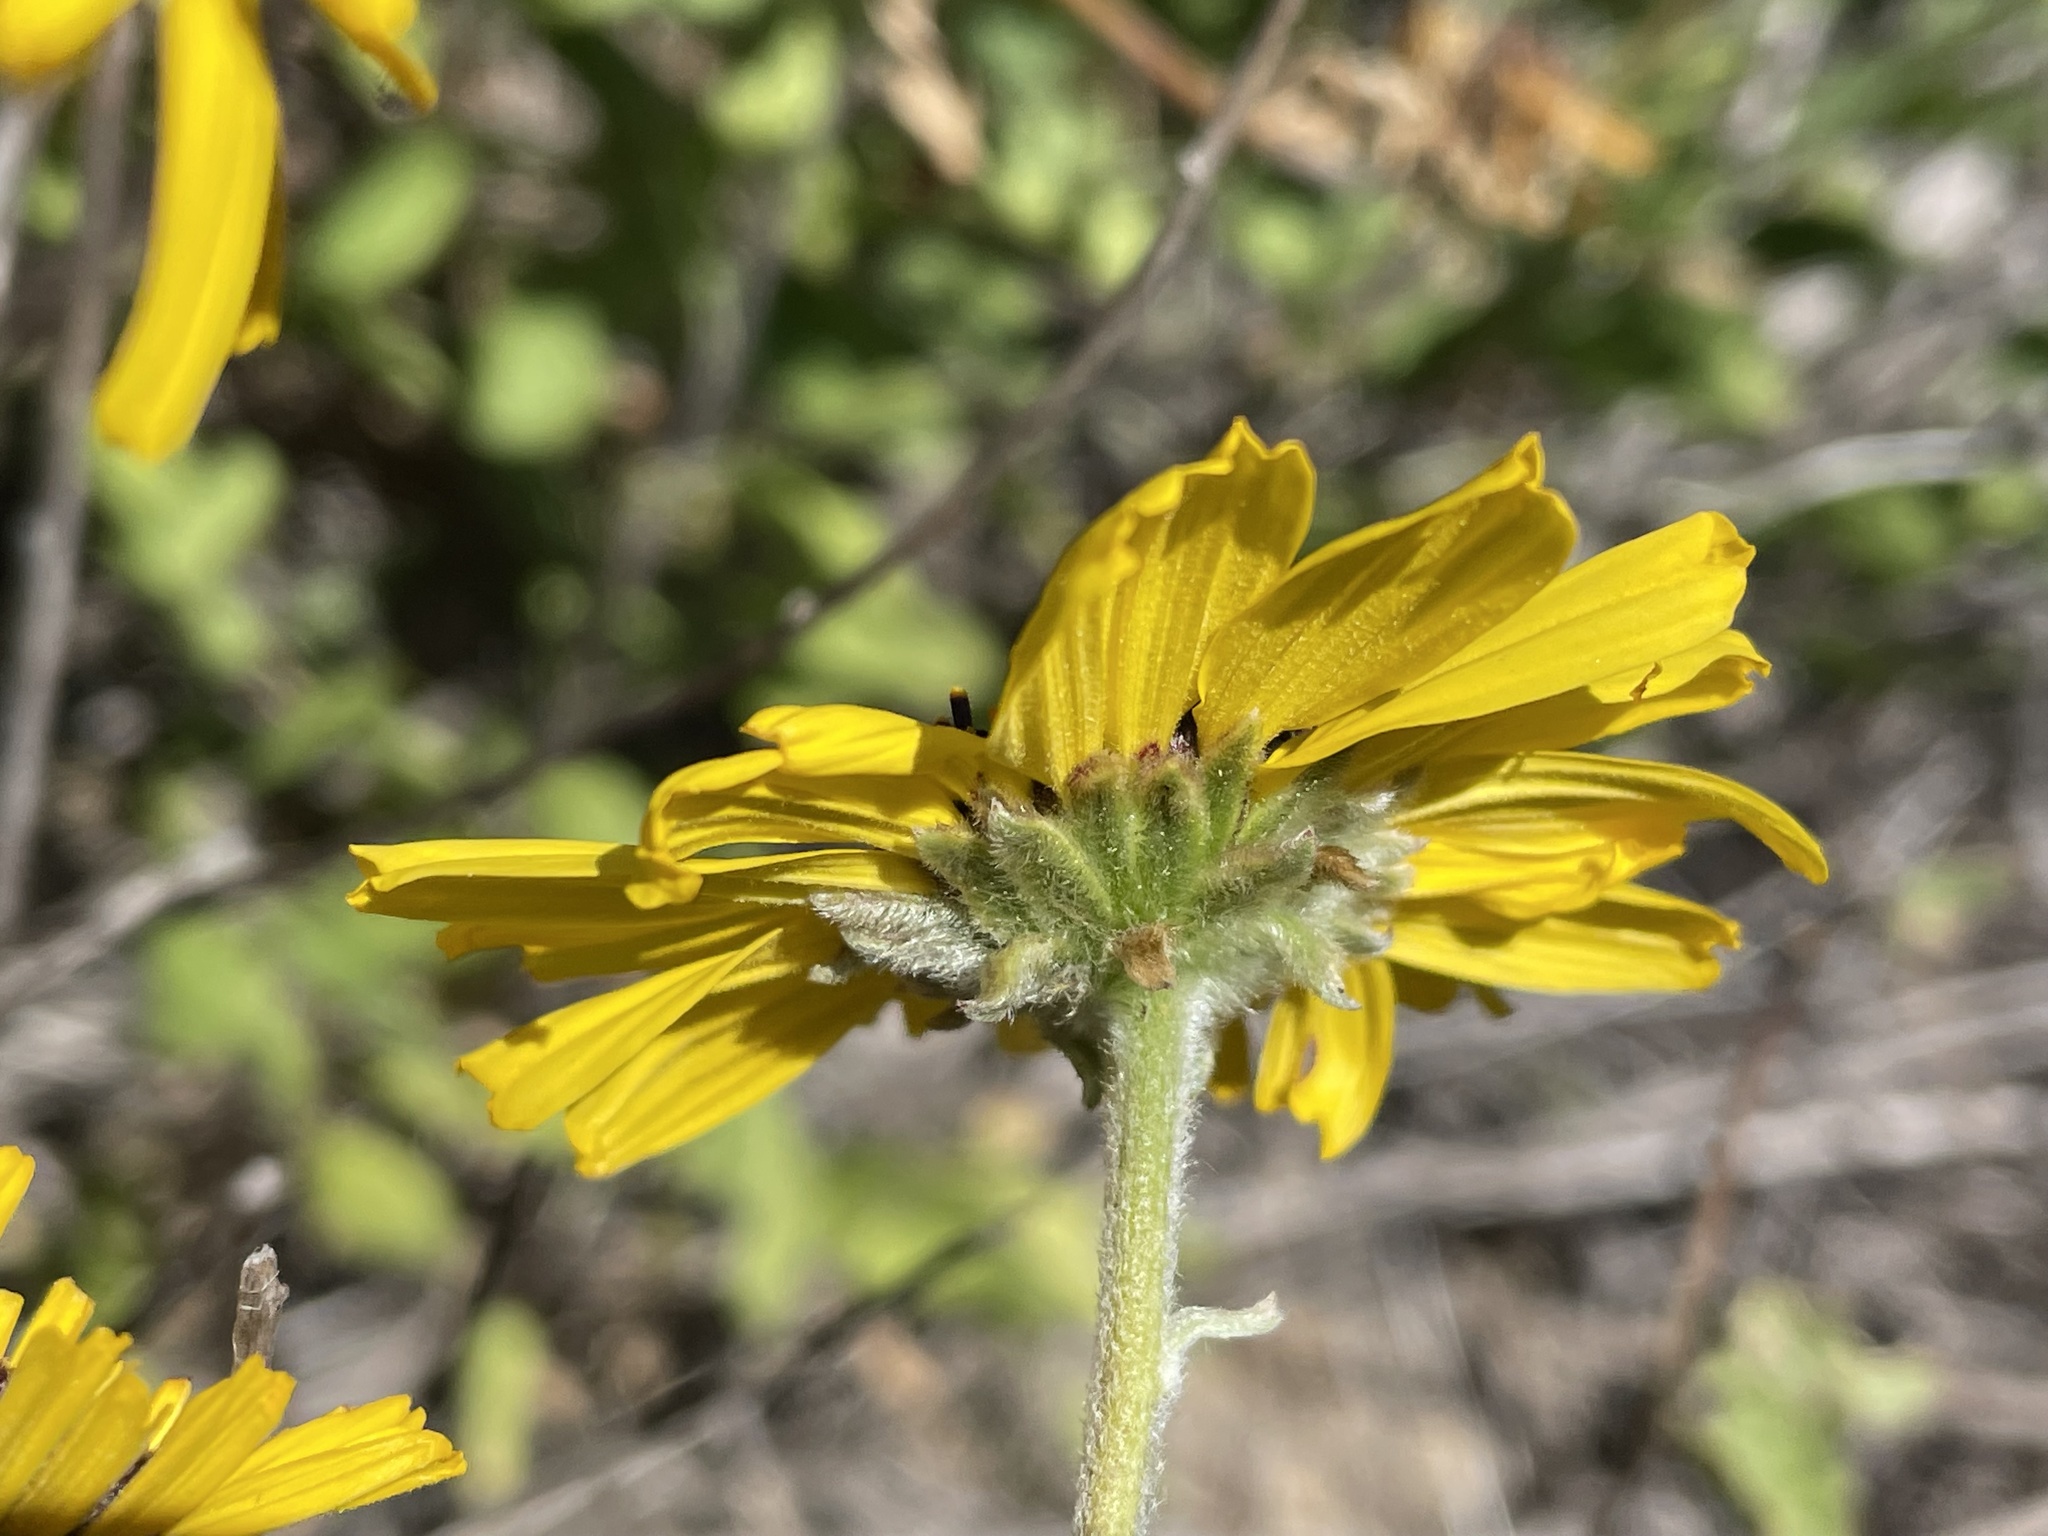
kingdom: Plantae
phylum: Tracheophyta
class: Magnoliopsida
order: Asterales
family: Asteraceae
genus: Encelia
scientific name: Encelia californica
